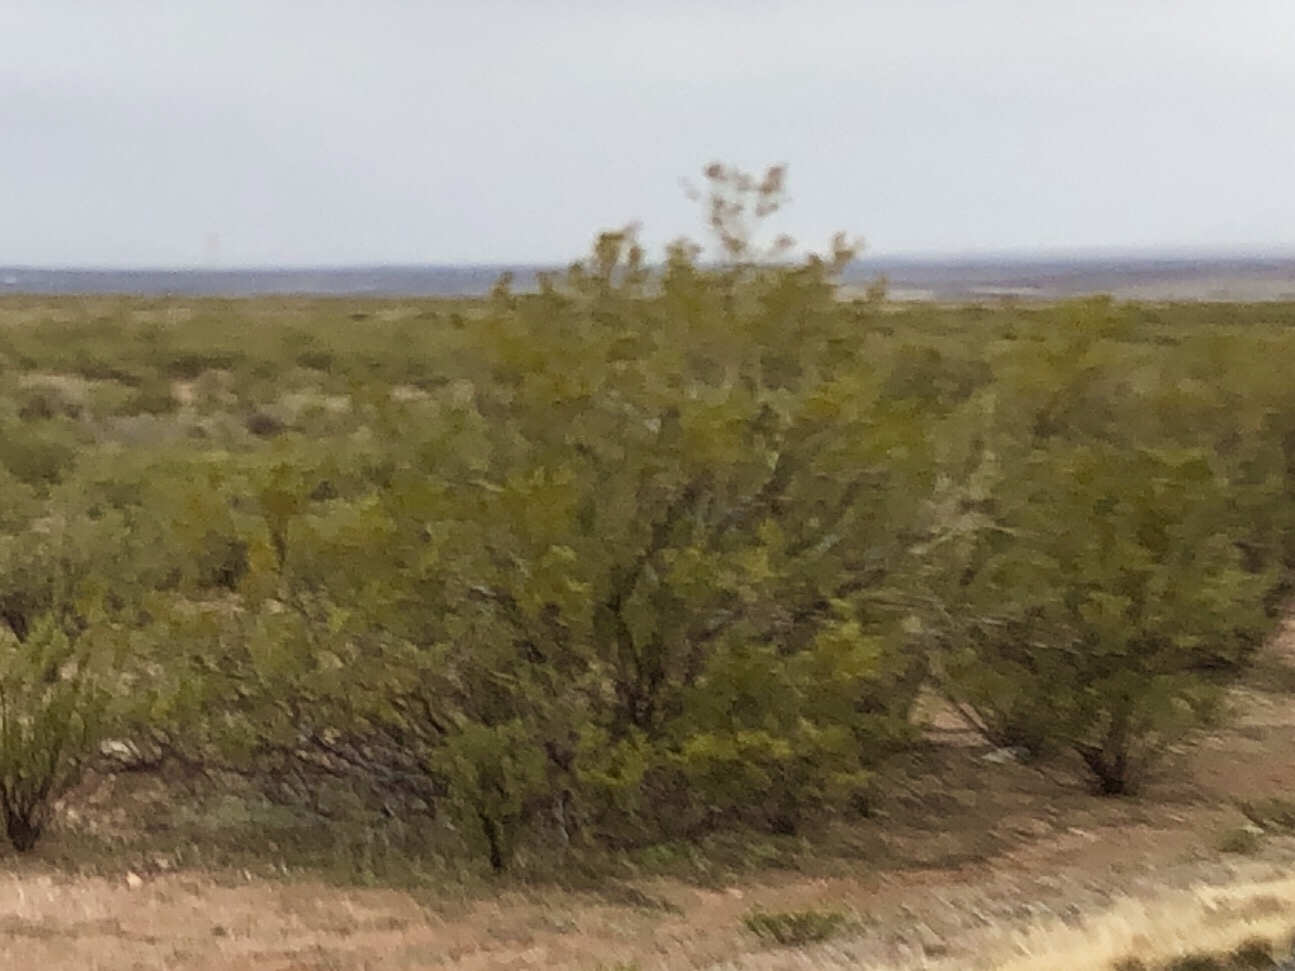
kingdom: Plantae
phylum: Tracheophyta
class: Magnoliopsida
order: Zygophyllales
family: Zygophyllaceae
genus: Larrea
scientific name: Larrea tridentata
